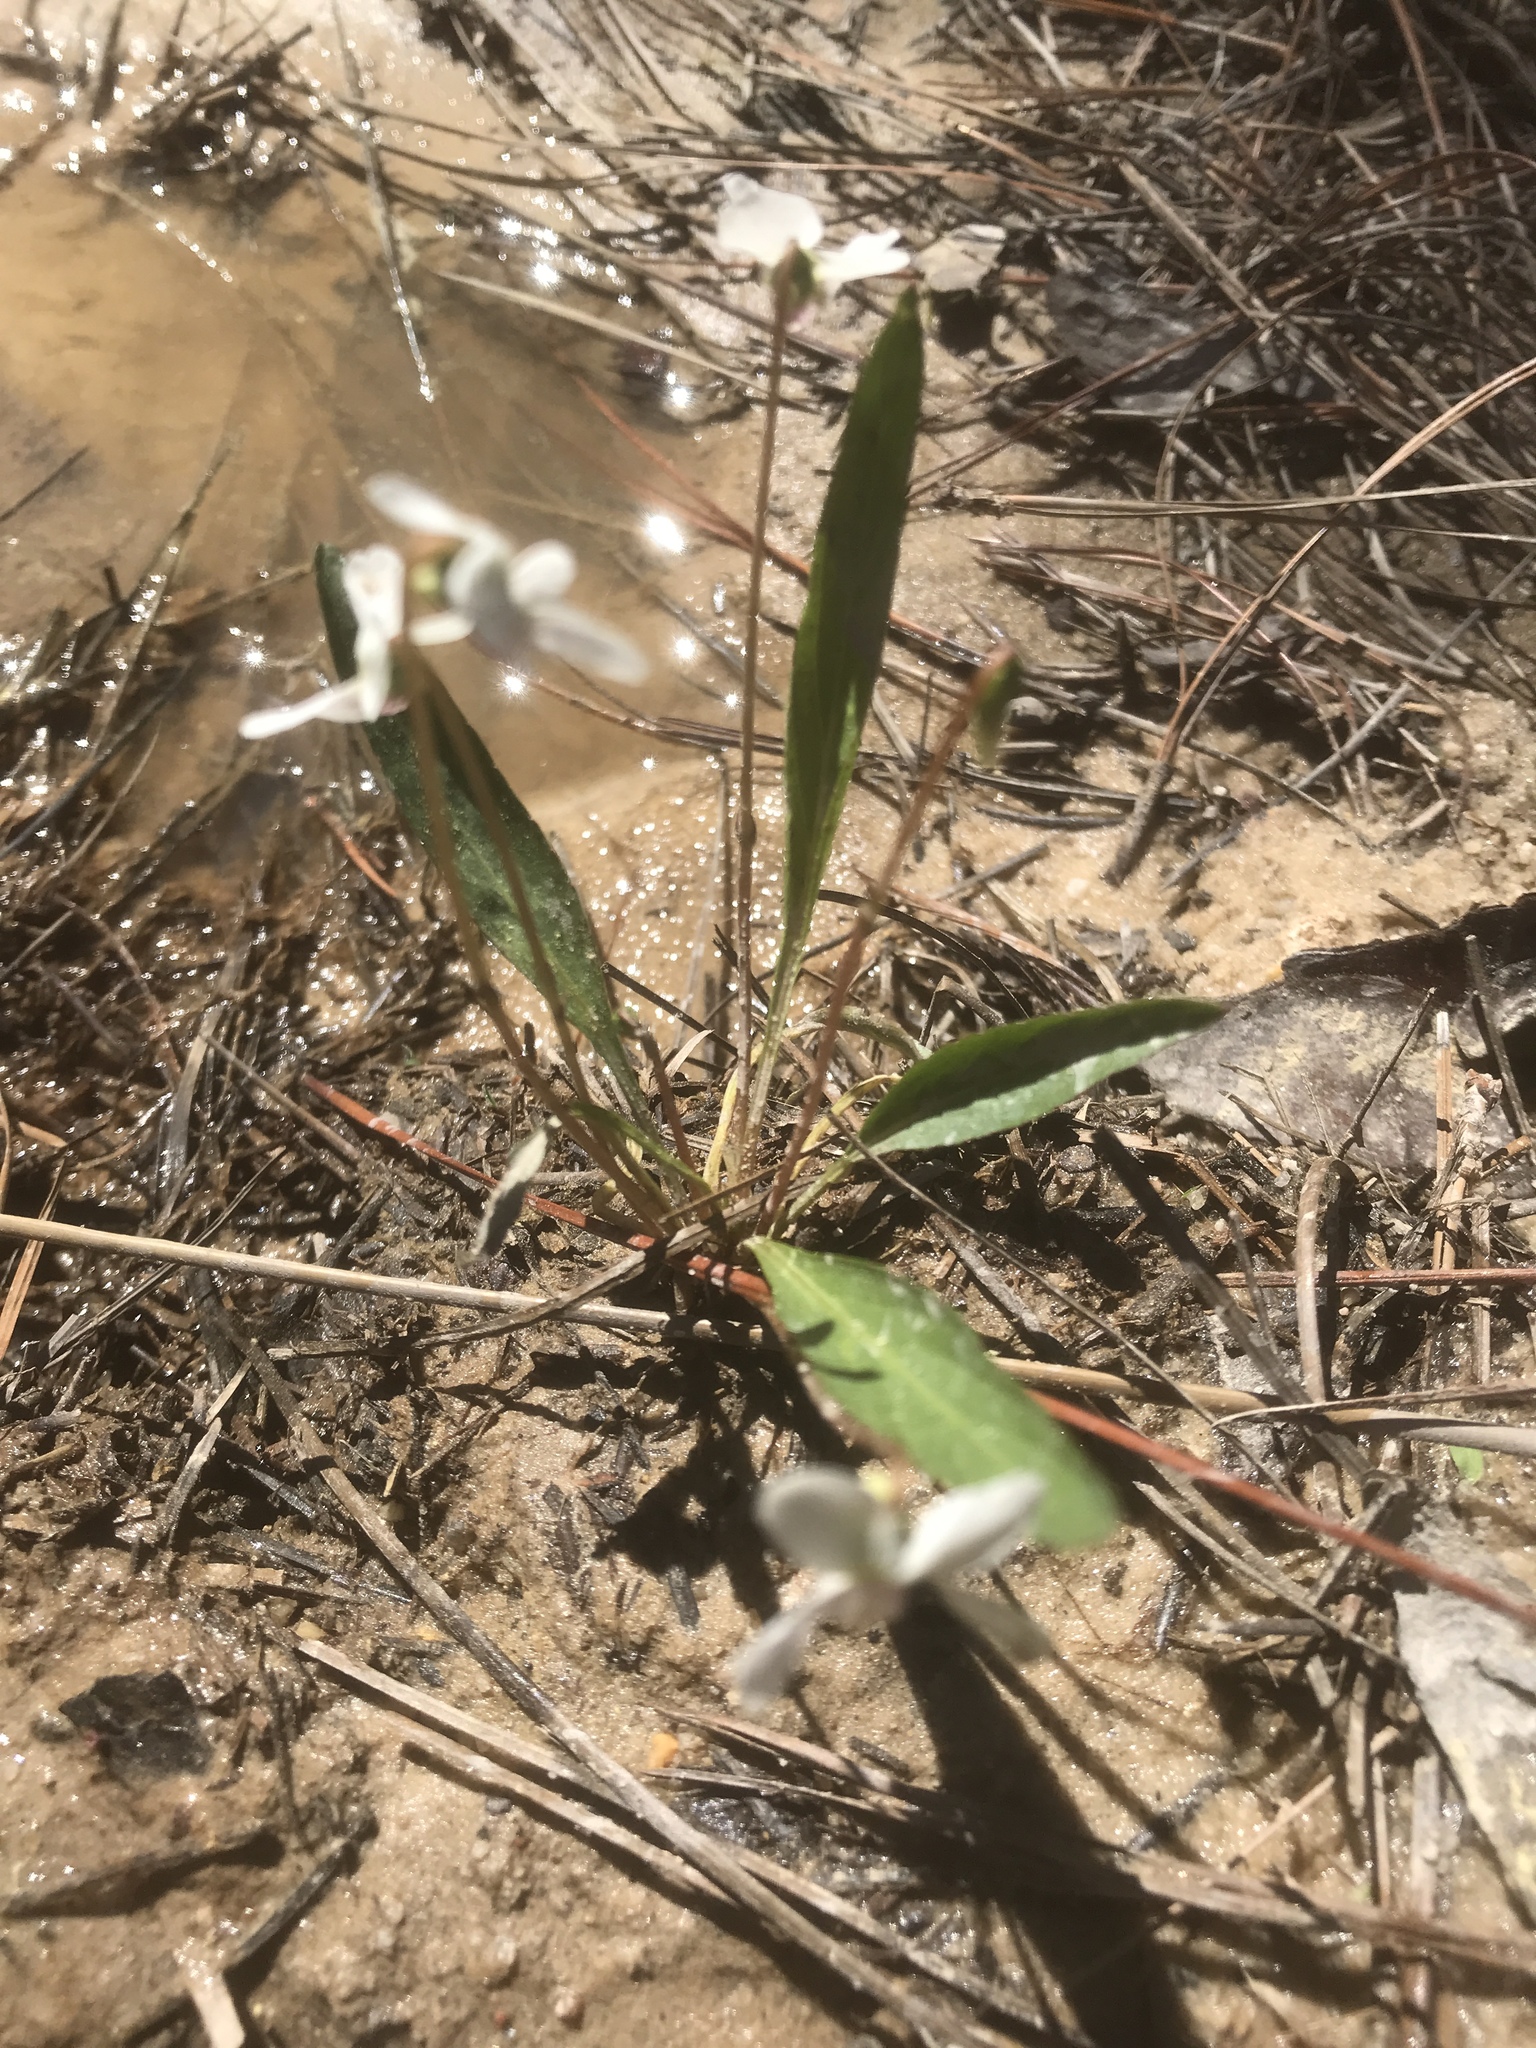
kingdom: Plantae
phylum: Tracheophyta
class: Magnoliopsida
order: Malpighiales
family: Violaceae
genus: Viola
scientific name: Viola lanceolata
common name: Bog white violet
